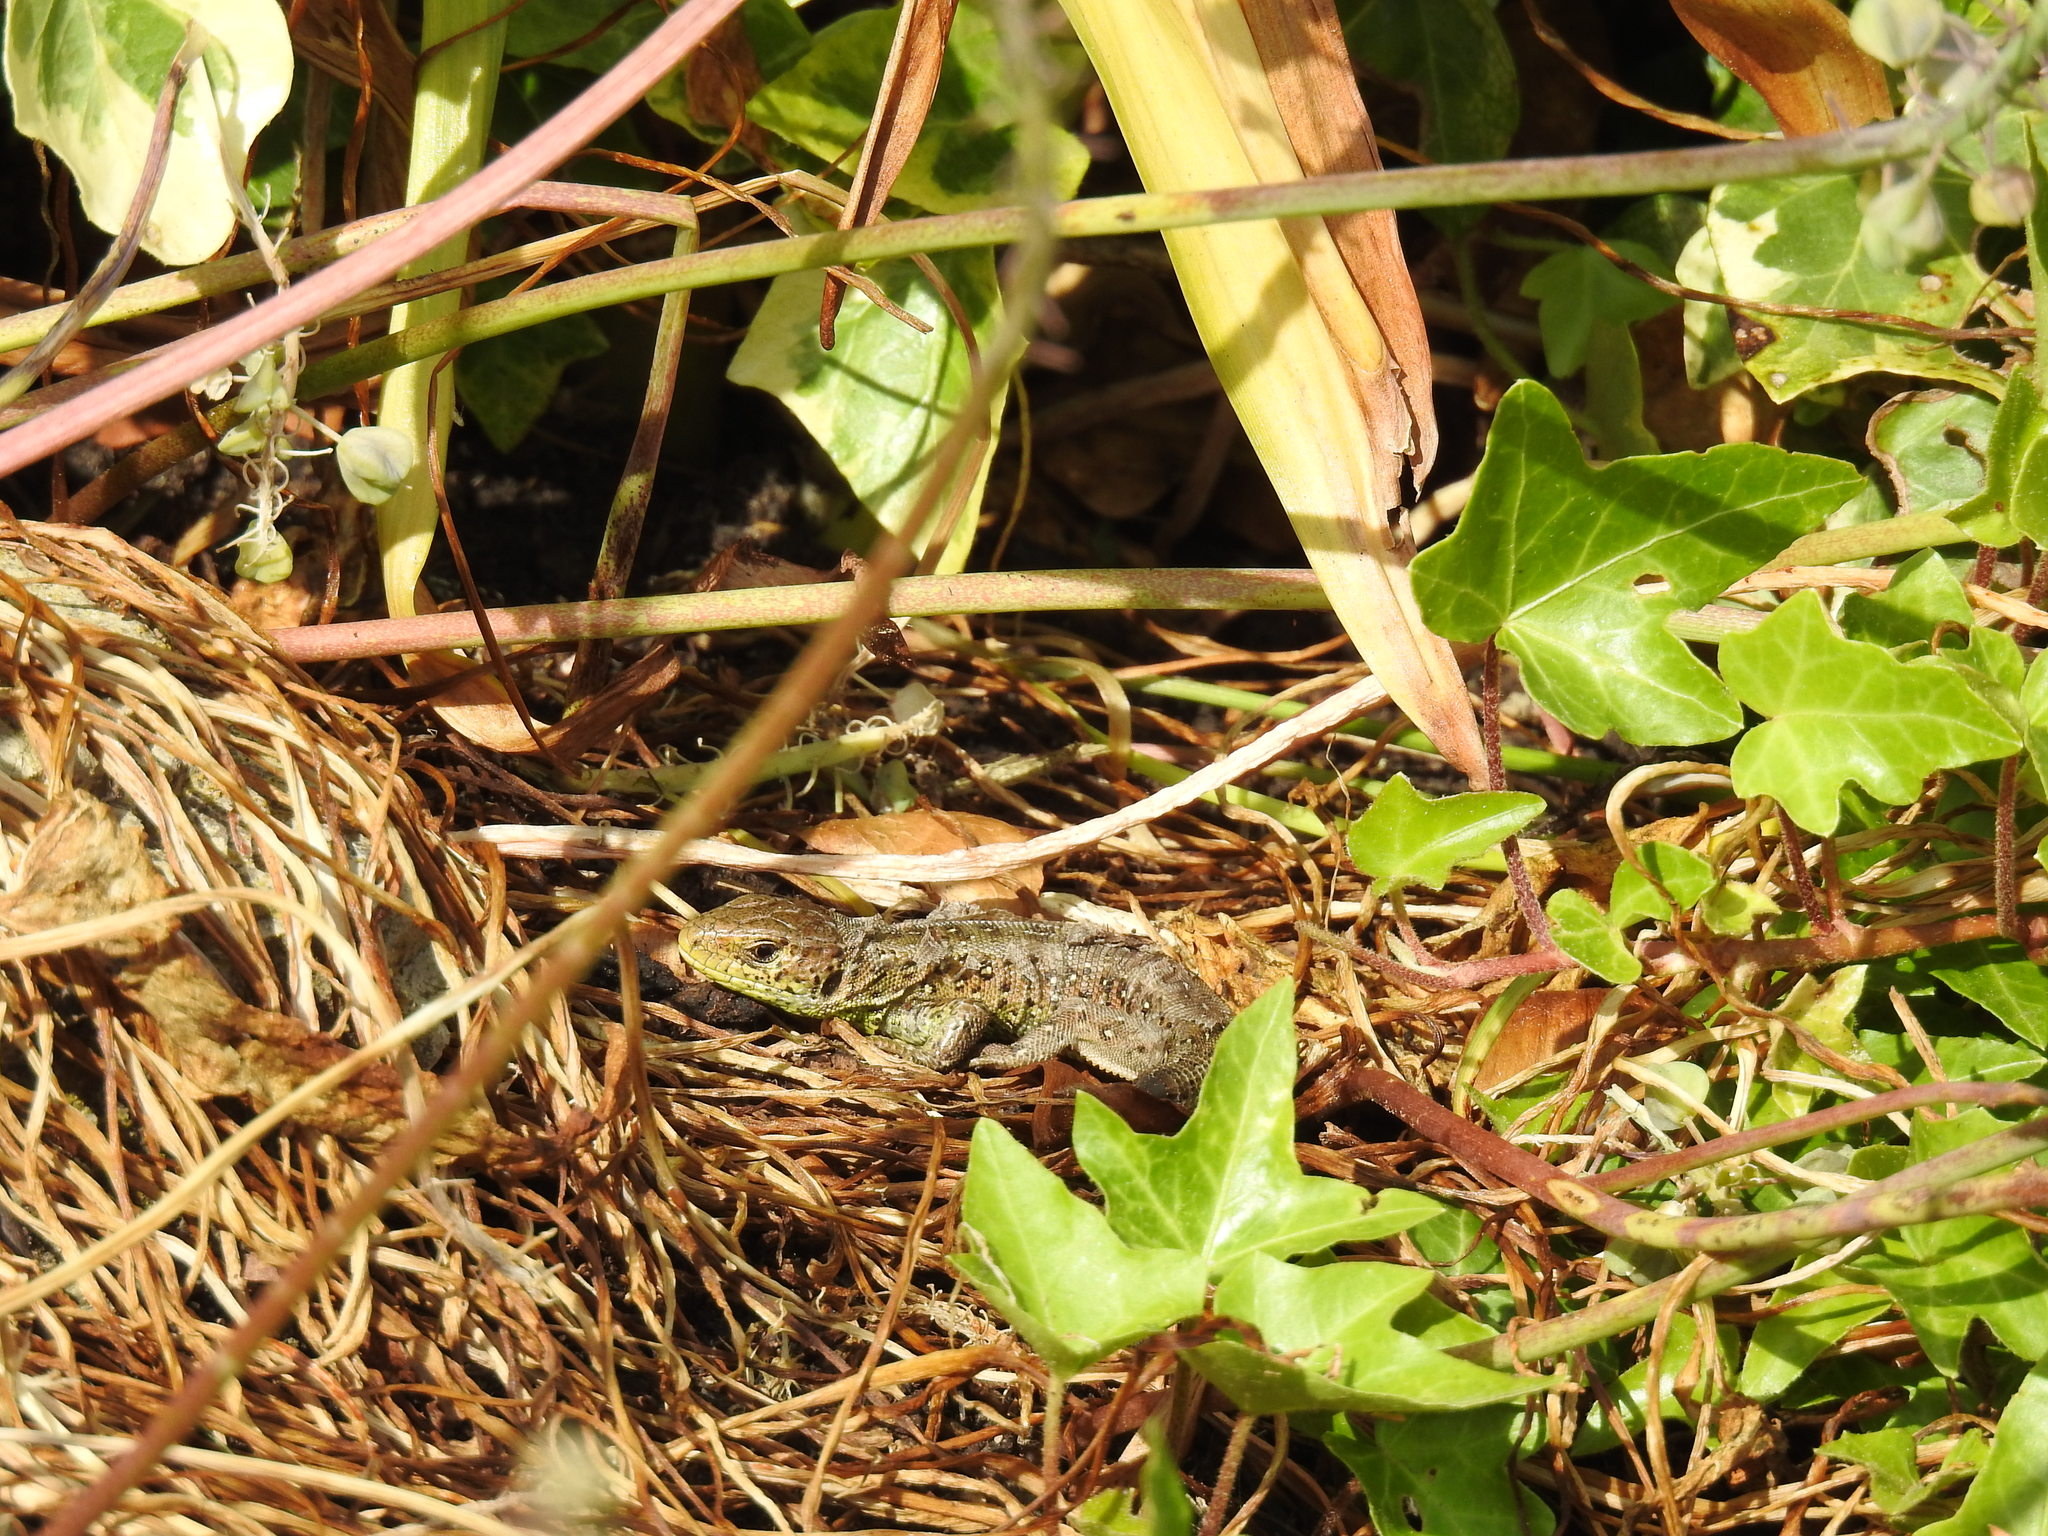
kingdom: Animalia
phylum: Chordata
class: Squamata
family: Lacertidae
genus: Lacerta
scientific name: Lacerta agilis
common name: Sand lizard
